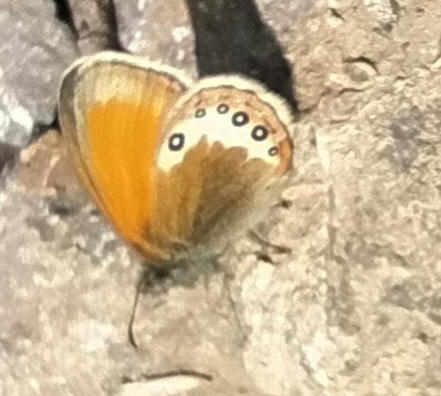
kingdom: Animalia
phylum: Arthropoda
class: Insecta
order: Lepidoptera
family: Nymphalidae
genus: Coenonympha
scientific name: Coenonympha
